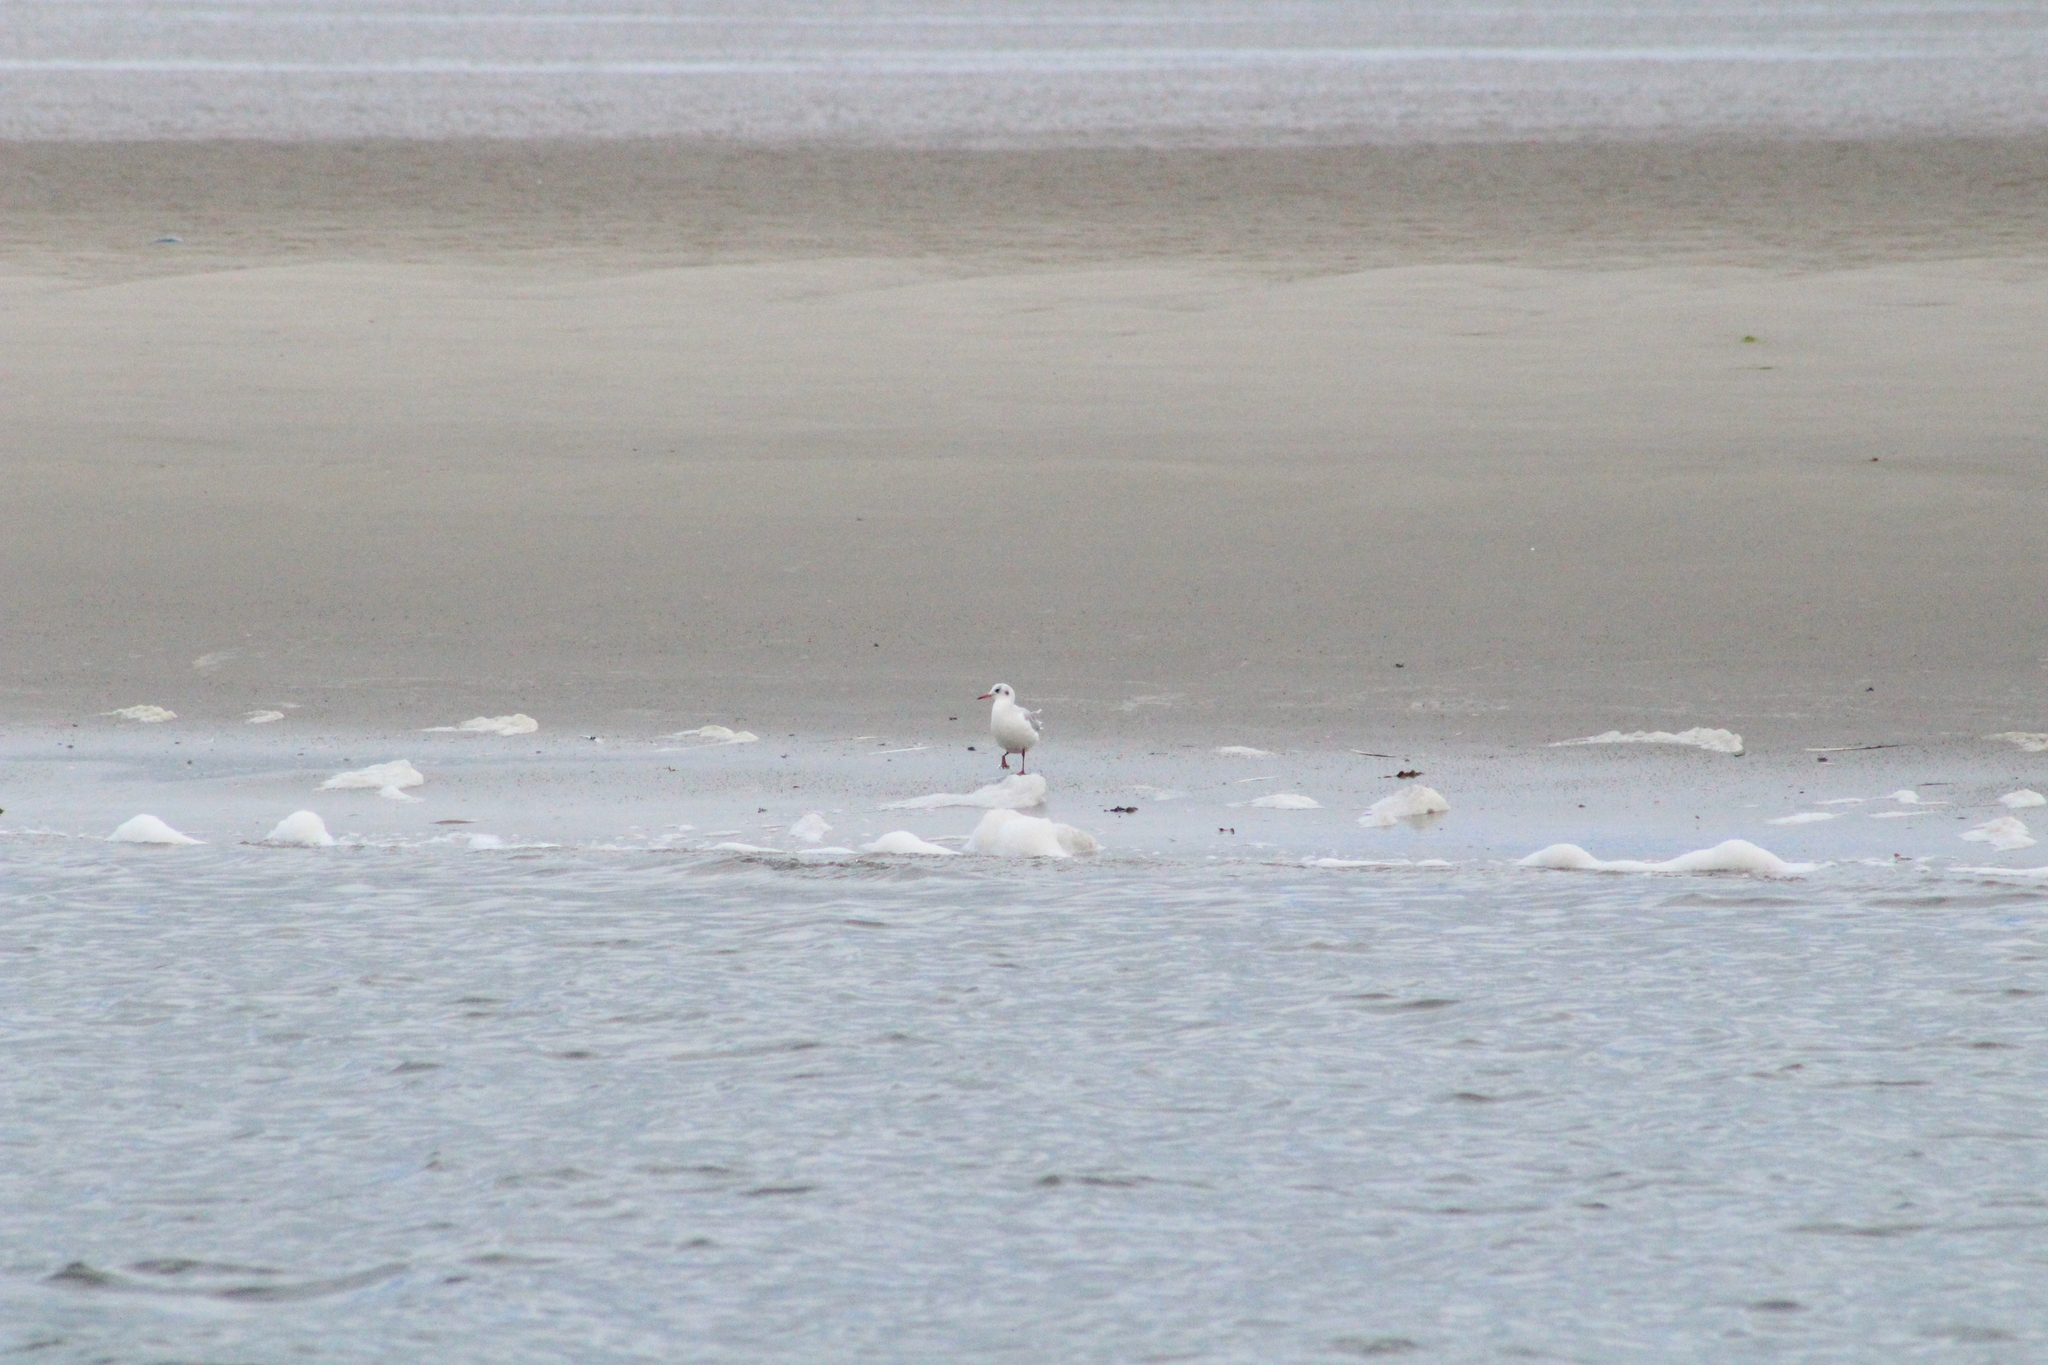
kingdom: Animalia
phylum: Chordata
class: Aves
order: Charadriiformes
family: Laridae
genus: Chroicocephalus
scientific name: Chroicocephalus ridibundus
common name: Black-headed gull
